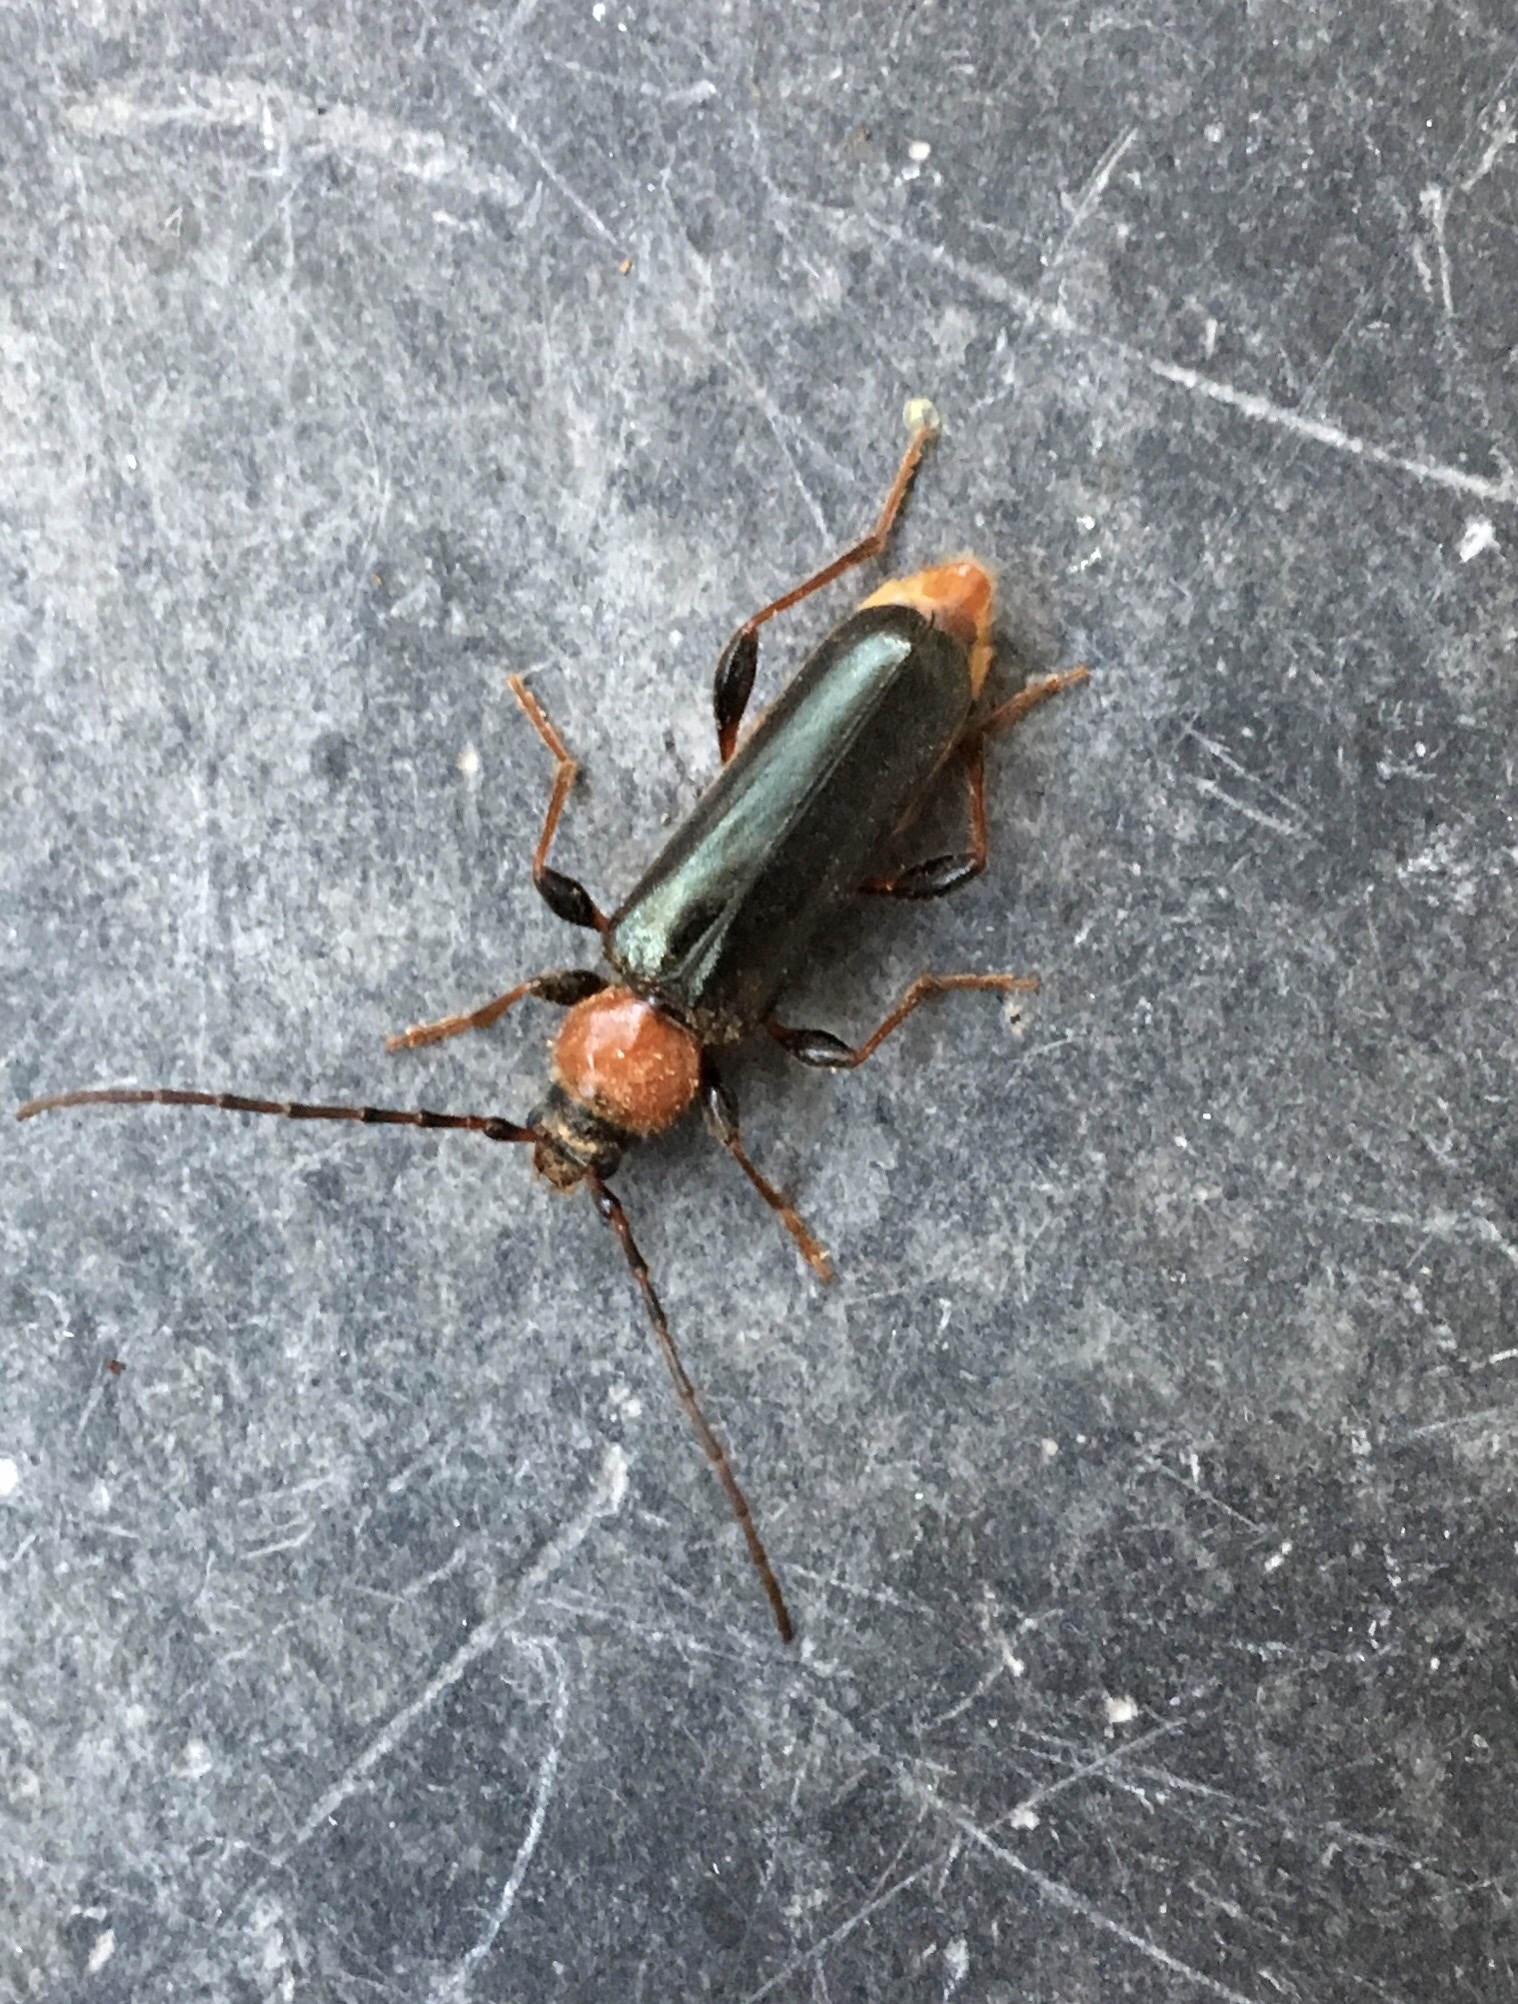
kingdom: Animalia
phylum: Arthropoda
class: Insecta
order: Coleoptera
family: Cerambycidae
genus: Phymatodes
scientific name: Phymatodes testaceus
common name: Long-horned beetle
